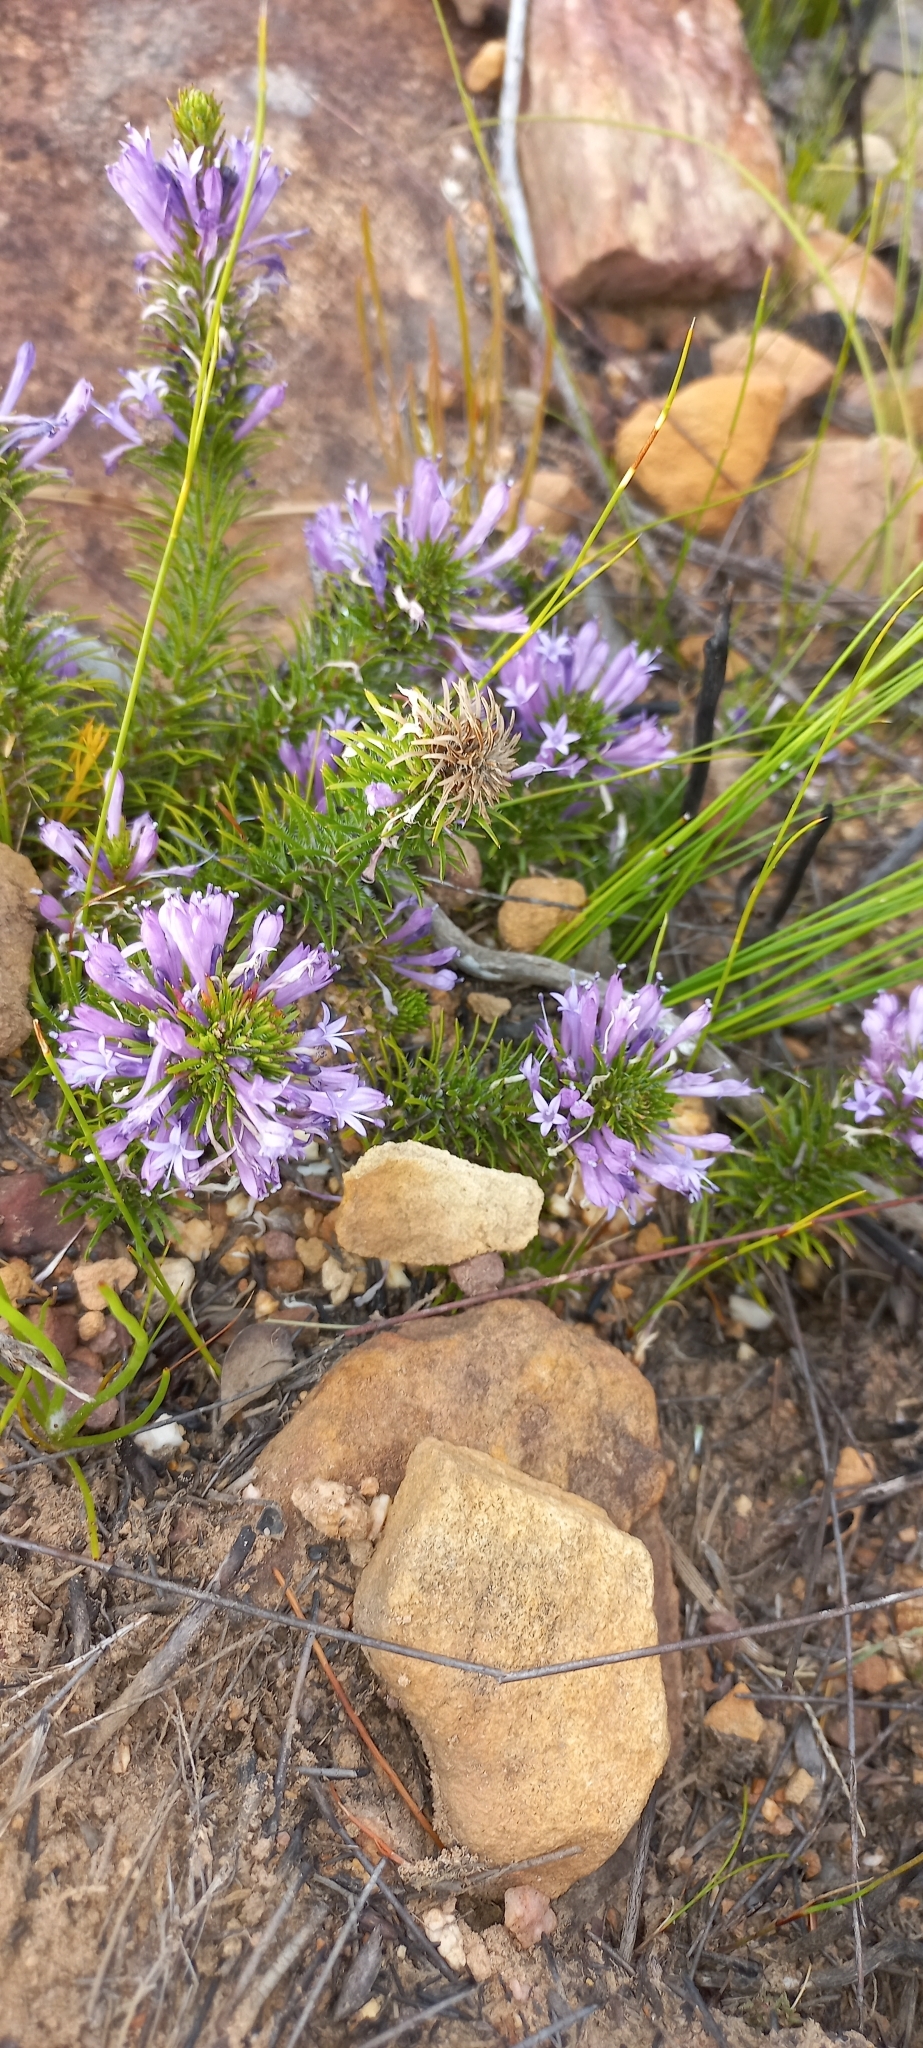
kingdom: Plantae
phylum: Tracheophyta
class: Magnoliopsida
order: Asterales
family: Campanulaceae
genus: Merciera
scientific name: Merciera azurea
